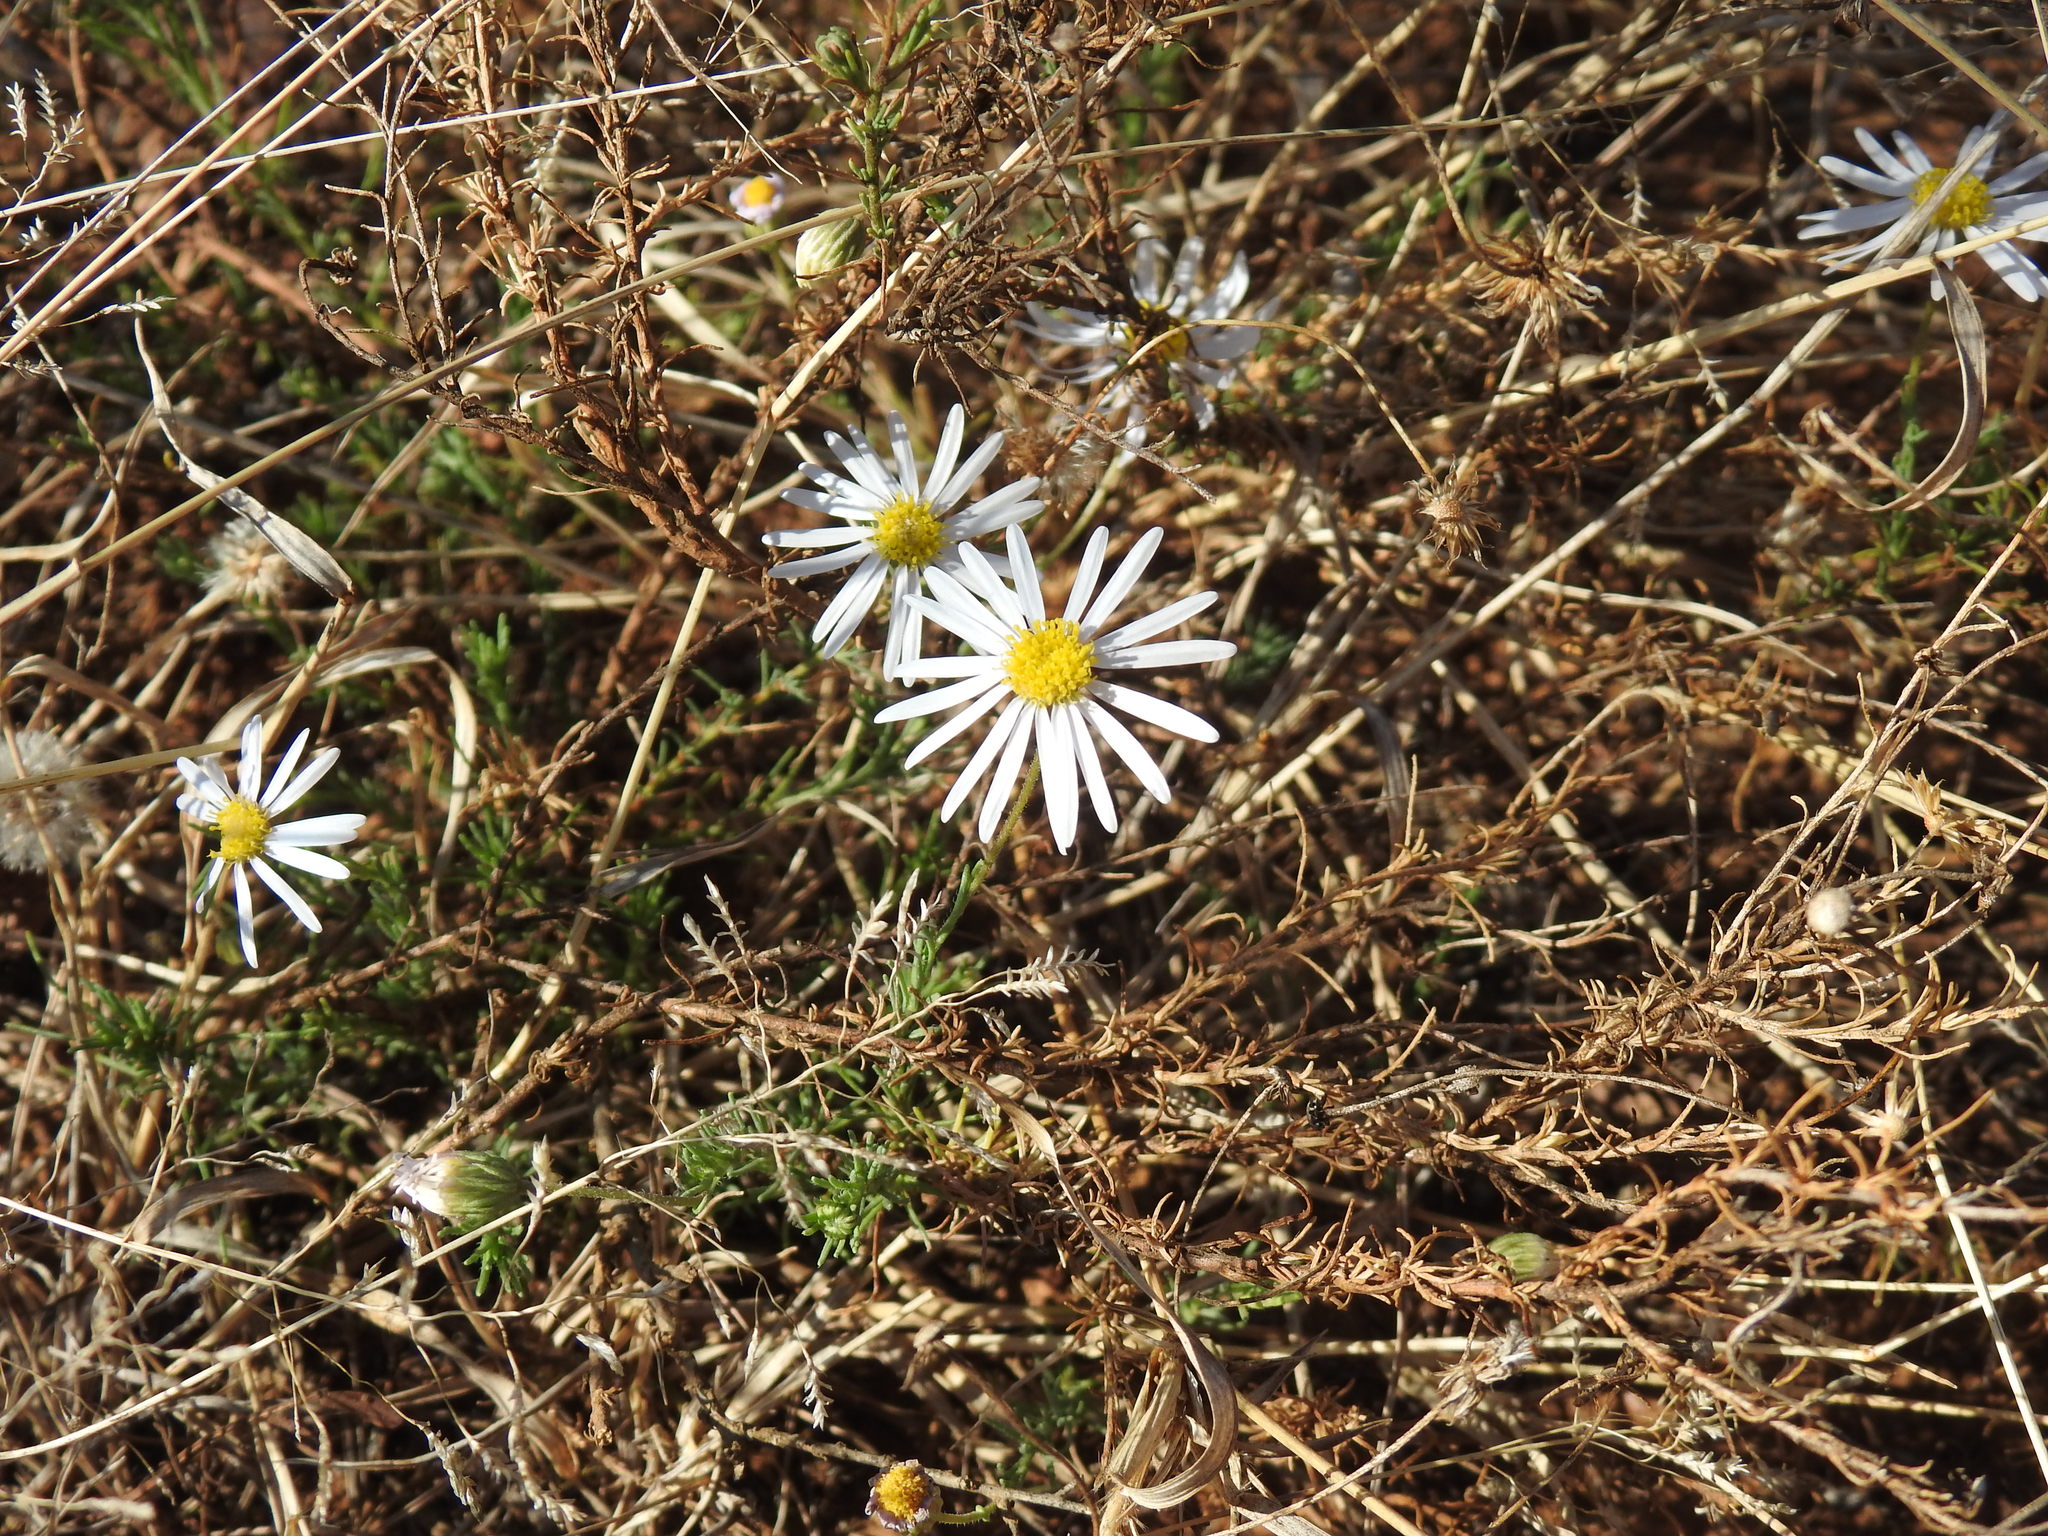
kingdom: Plantae
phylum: Tracheophyta
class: Magnoliopsida
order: Asterales
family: Asteraceae
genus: Felicia
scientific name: Felicia muricata
